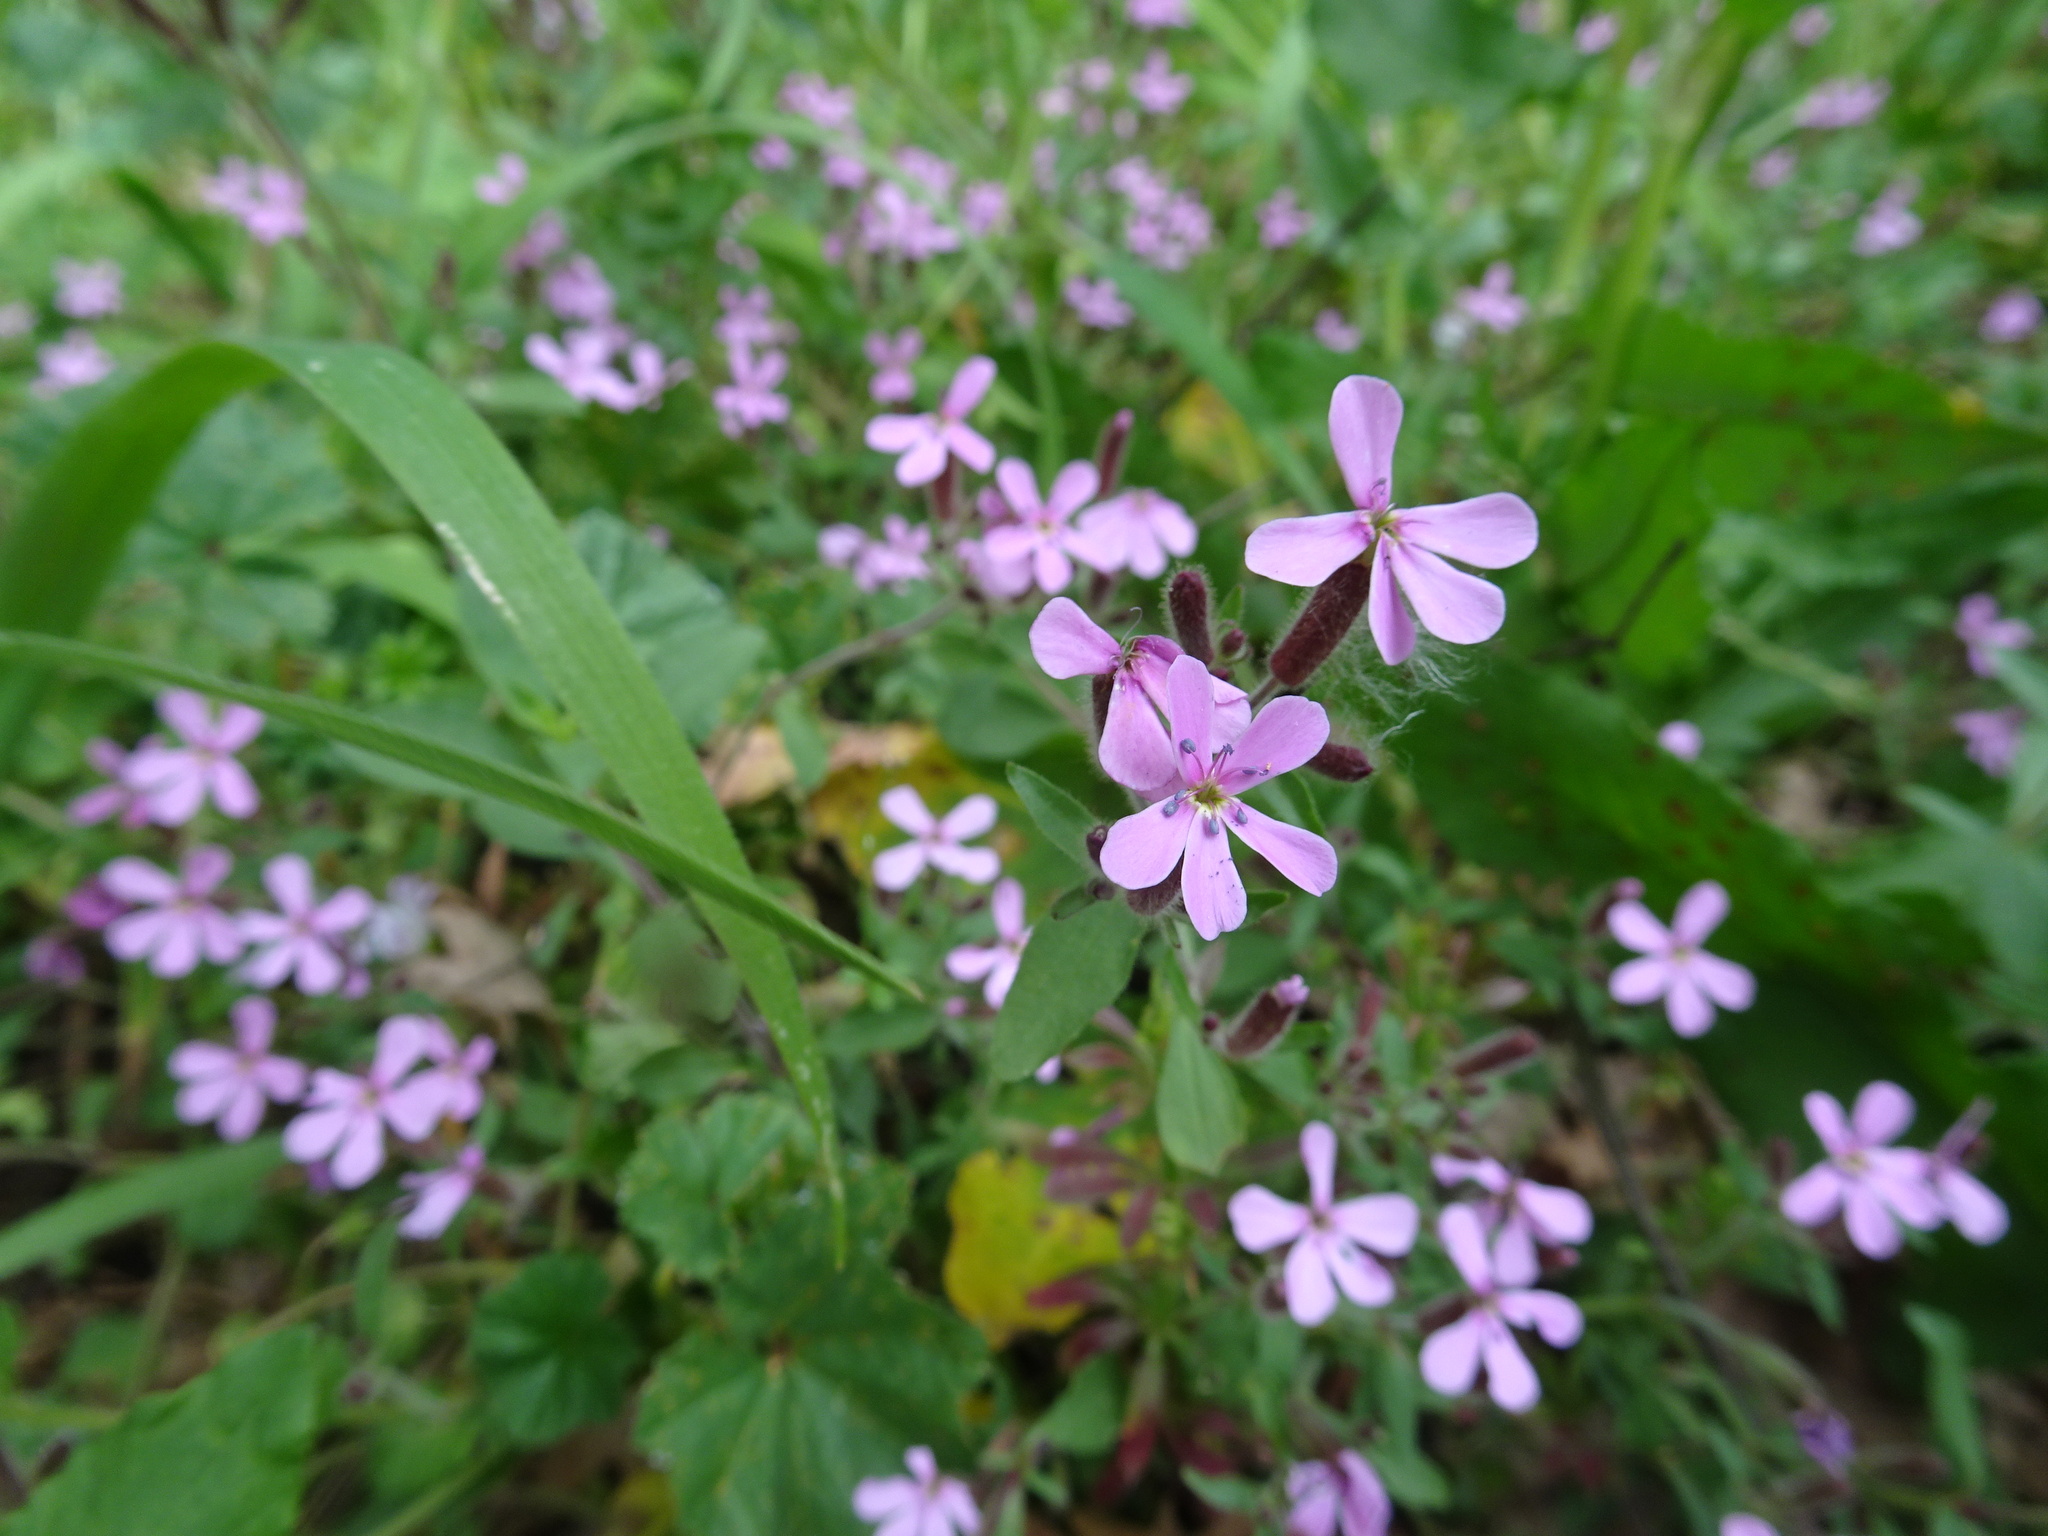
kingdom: Plantae
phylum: Tracheophyta
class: Magnoliopsida
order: Caryophyllales
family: Caryophyllaceae
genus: Saponaria
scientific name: Saponaria ocymoides
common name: Rock soapwort
